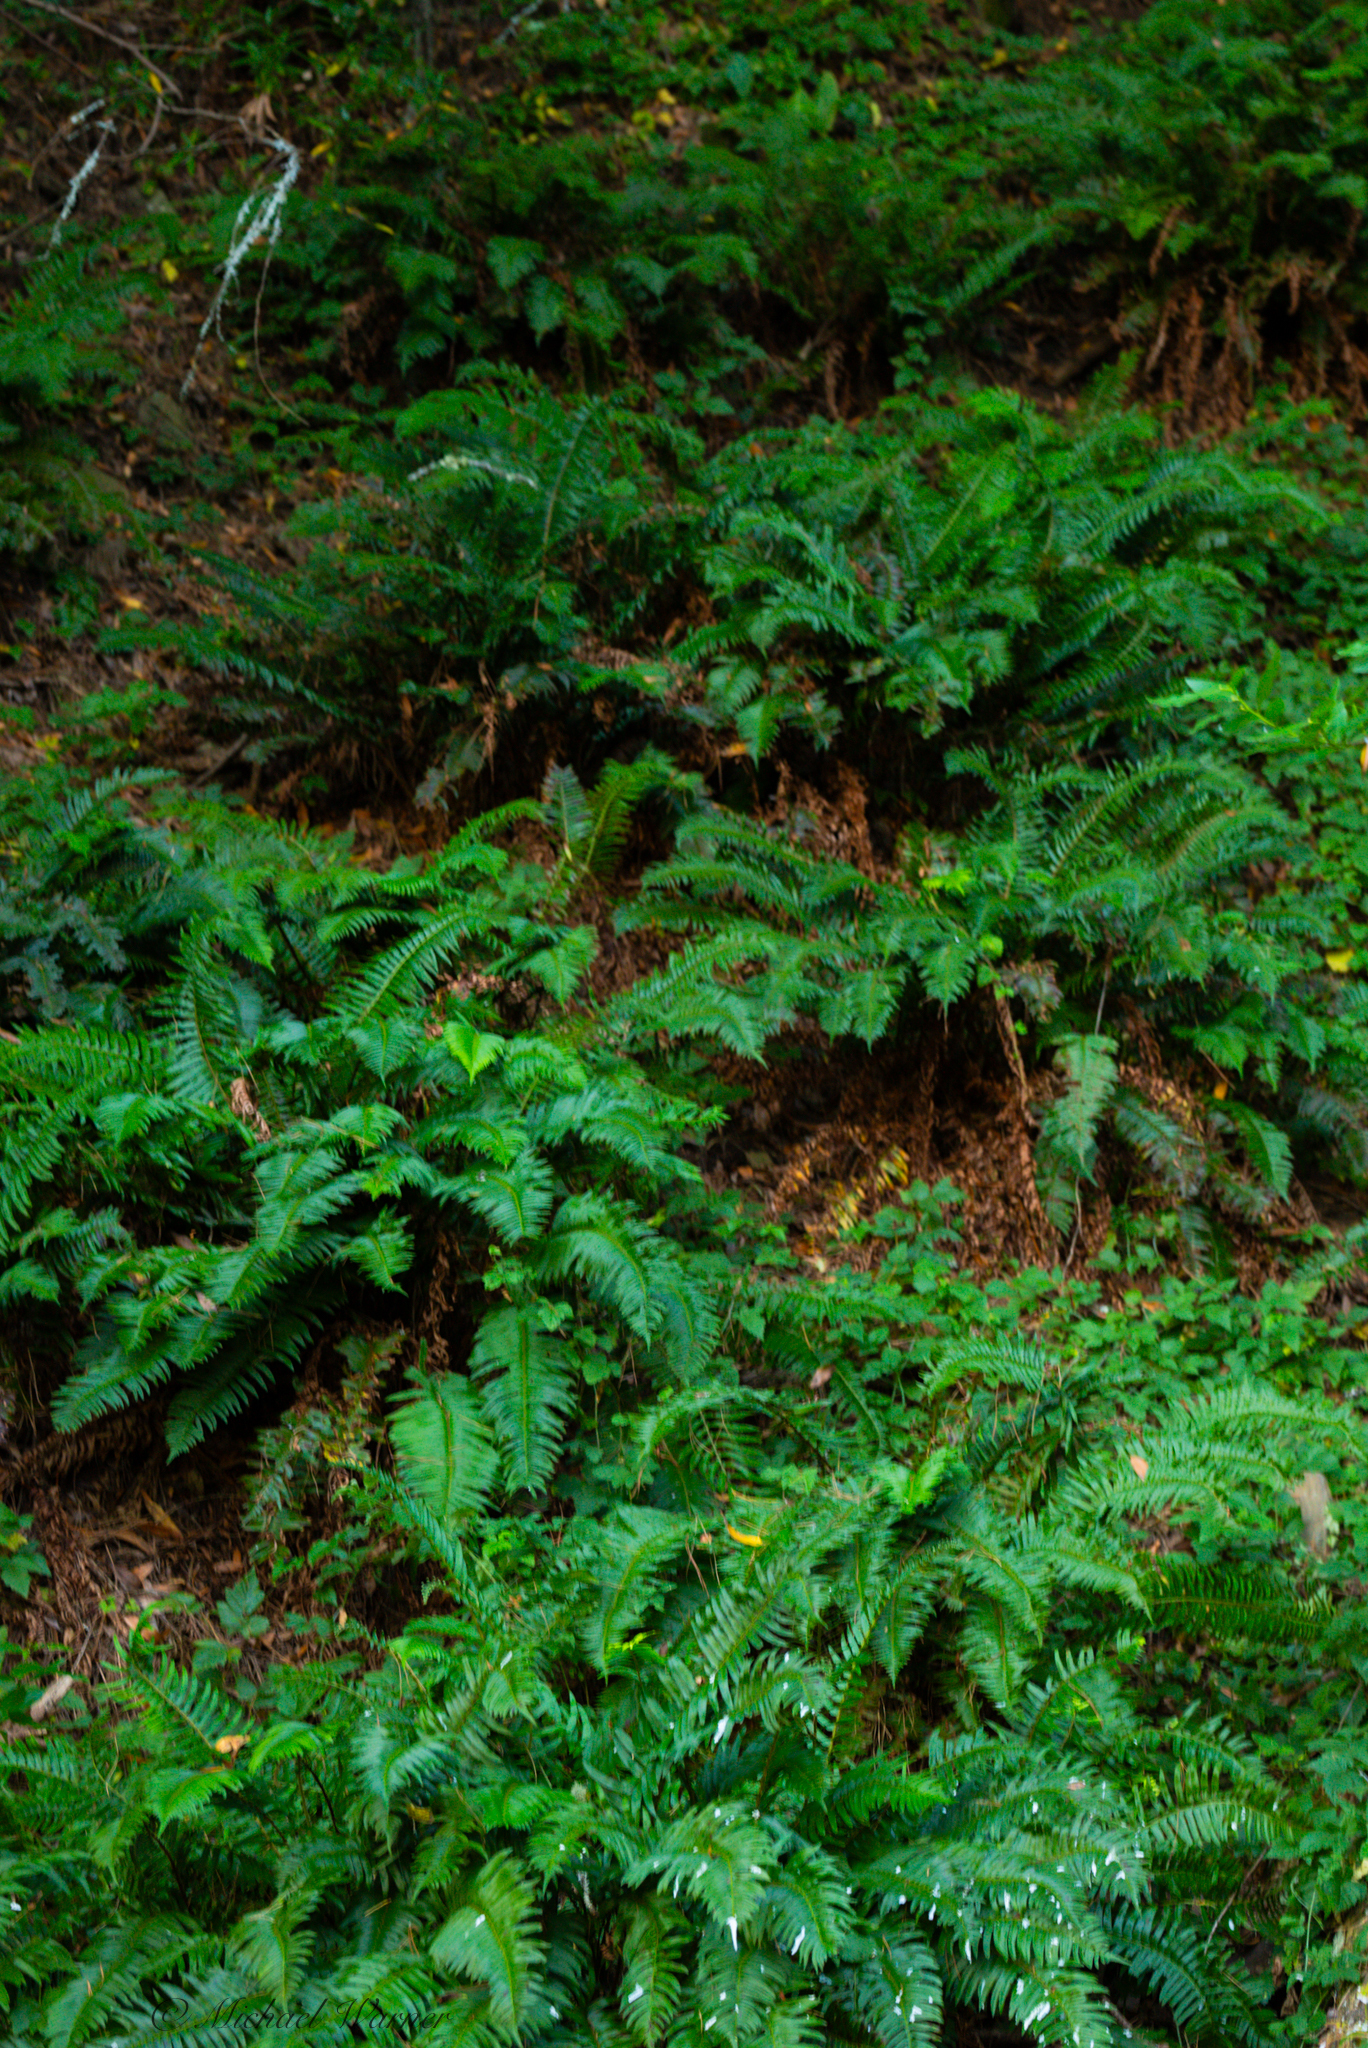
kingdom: Plantae
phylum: Tracheophyta
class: Polypodiopsida
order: Polypodiales
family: Dryopteridaceae
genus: Polystichum
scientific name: Polystichum munitum
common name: Western sword-fern
